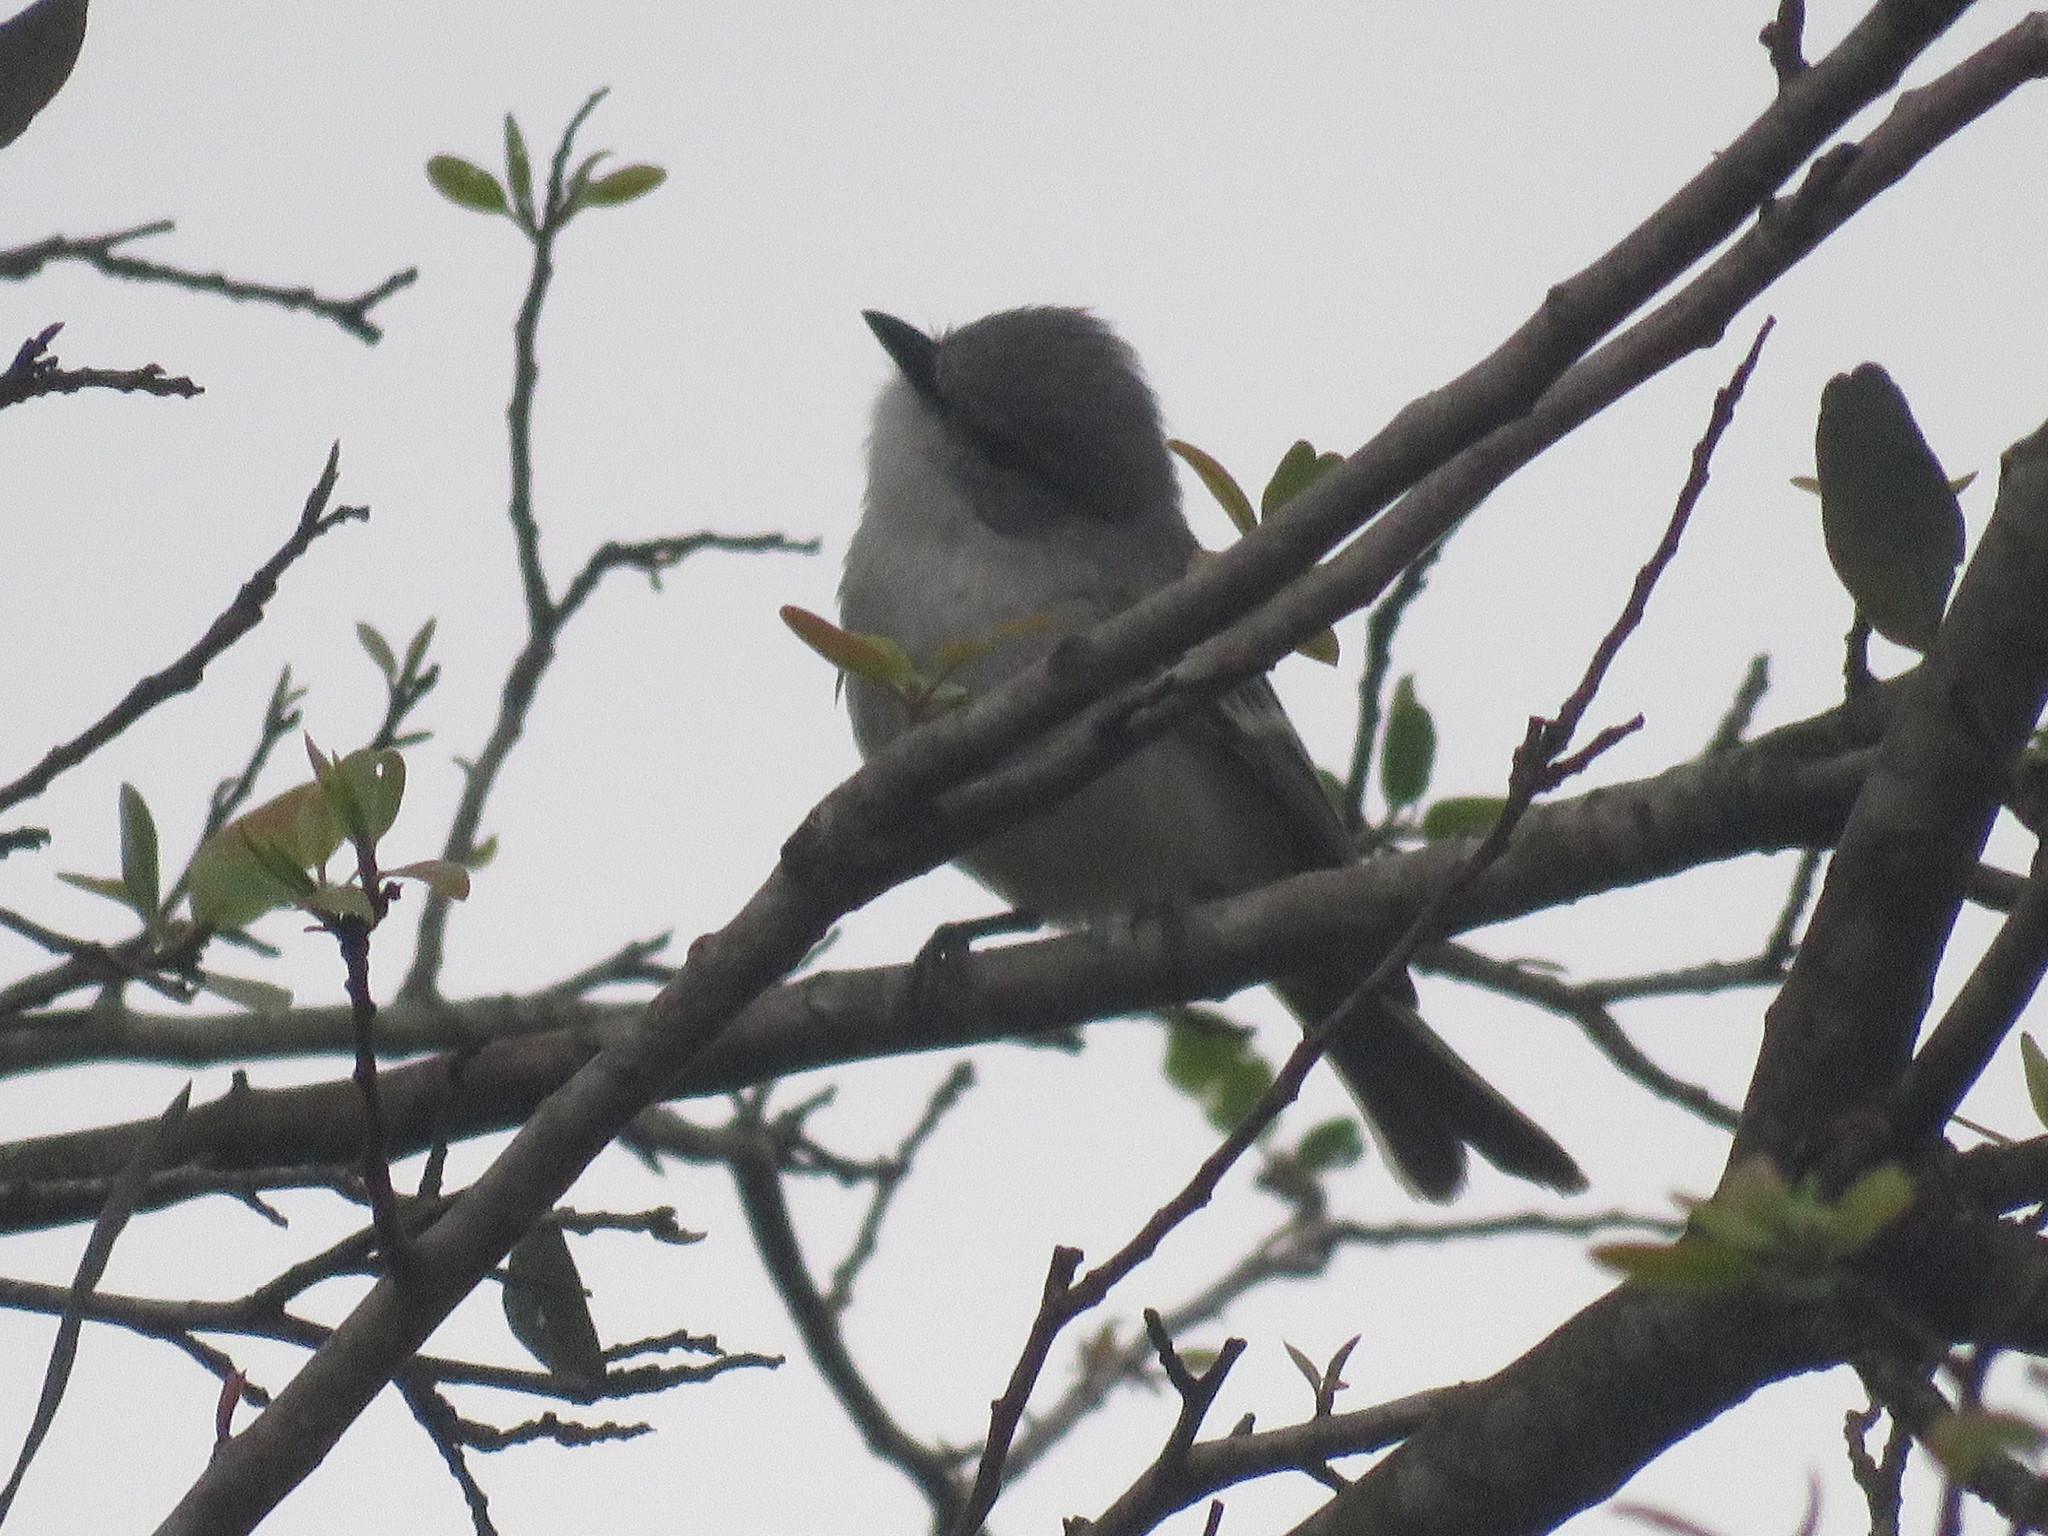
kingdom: Animalia
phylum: Chordata
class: Aves
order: Passeriformes
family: Tyrannidae
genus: Suiriri
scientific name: Suiriri suiriri
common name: Suiriri flycatcher
